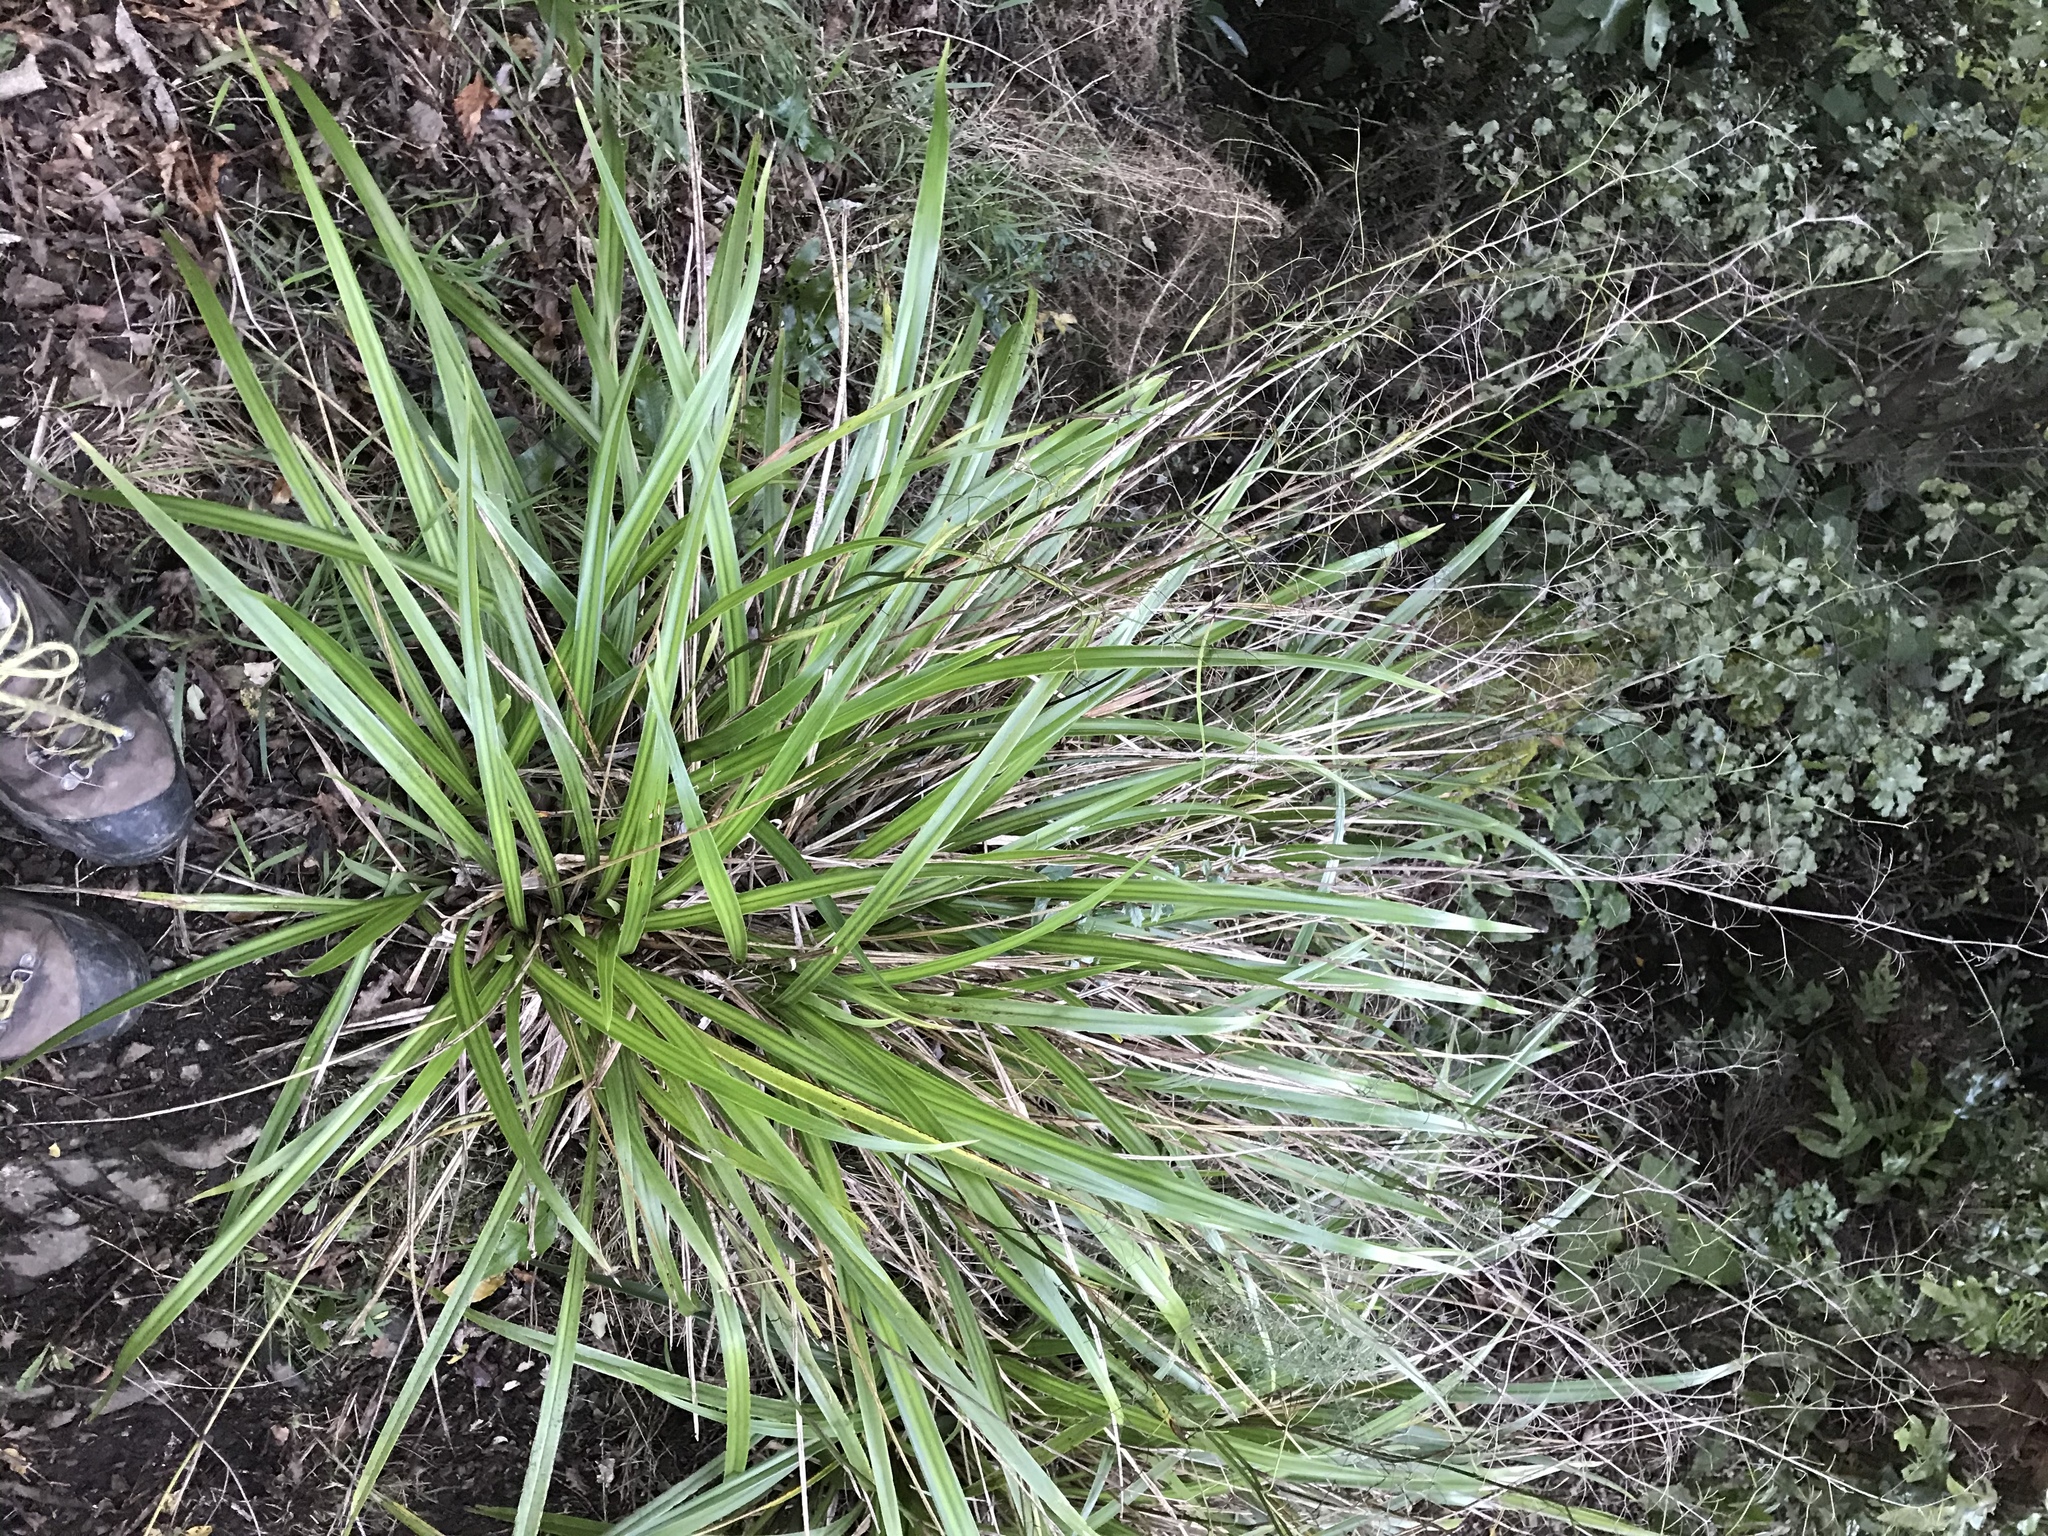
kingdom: Plantae
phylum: Tracheophyta
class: Liliopsida
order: Asparagales
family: Asphodelaceae
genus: Dianella
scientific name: Dianella nigra
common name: New zealand-blueberry
